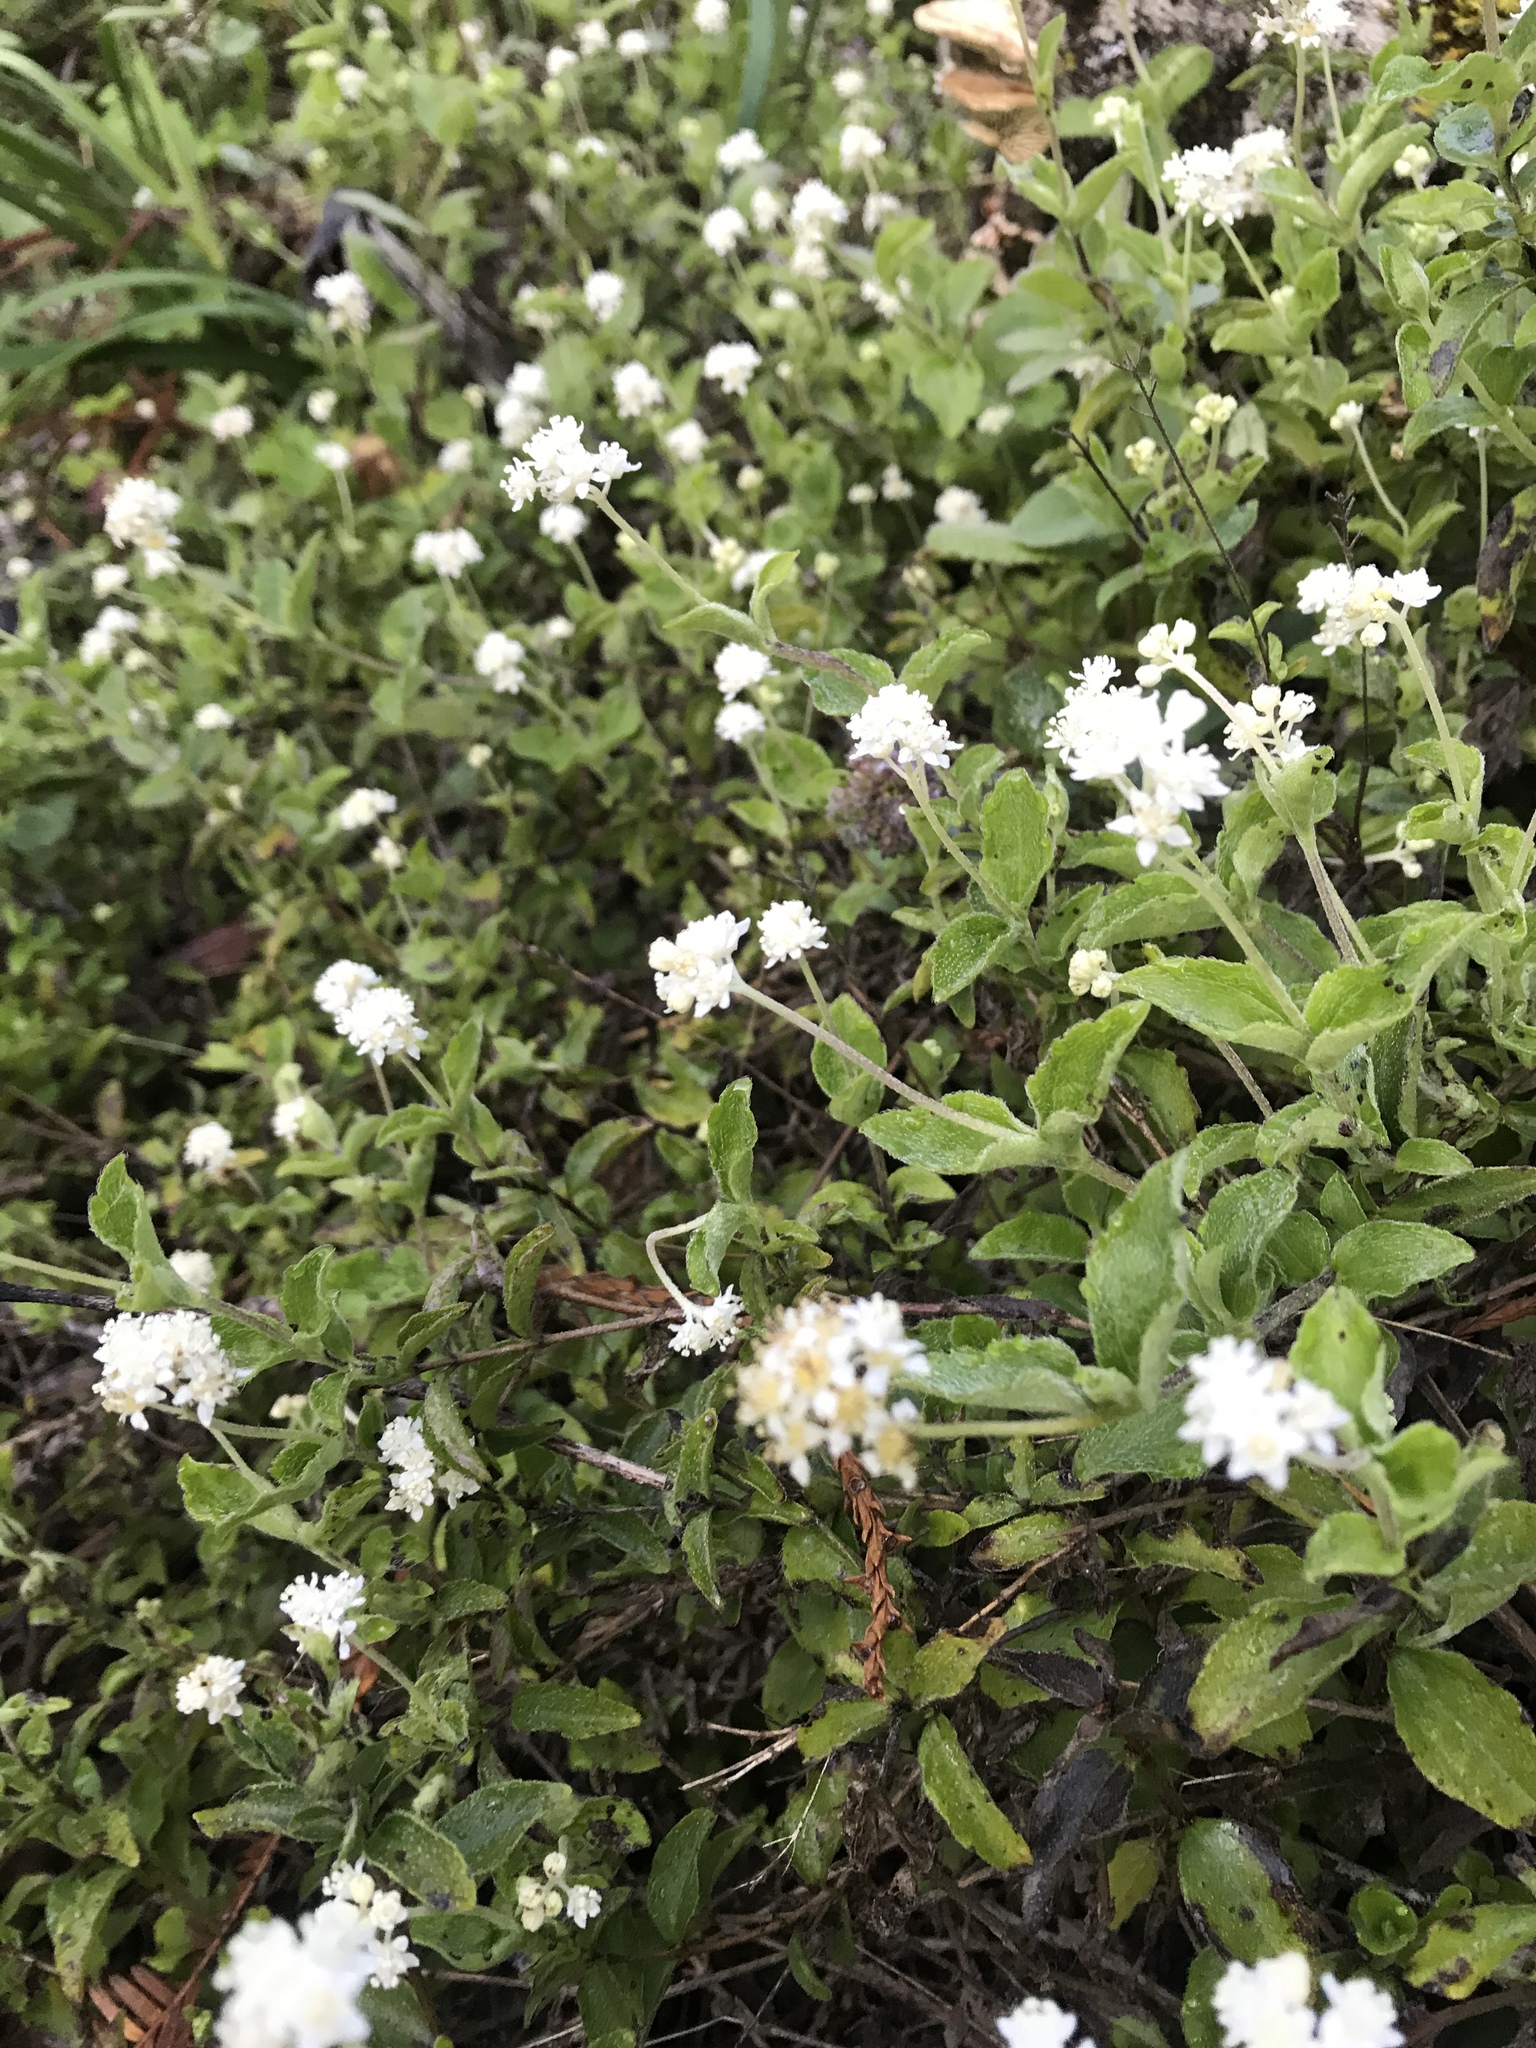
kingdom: Plantae
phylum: Tracheophyta
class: Magnoliopsida
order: Cornales
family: Hydrangeaceae
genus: Whipplea
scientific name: Whipplea modesta
